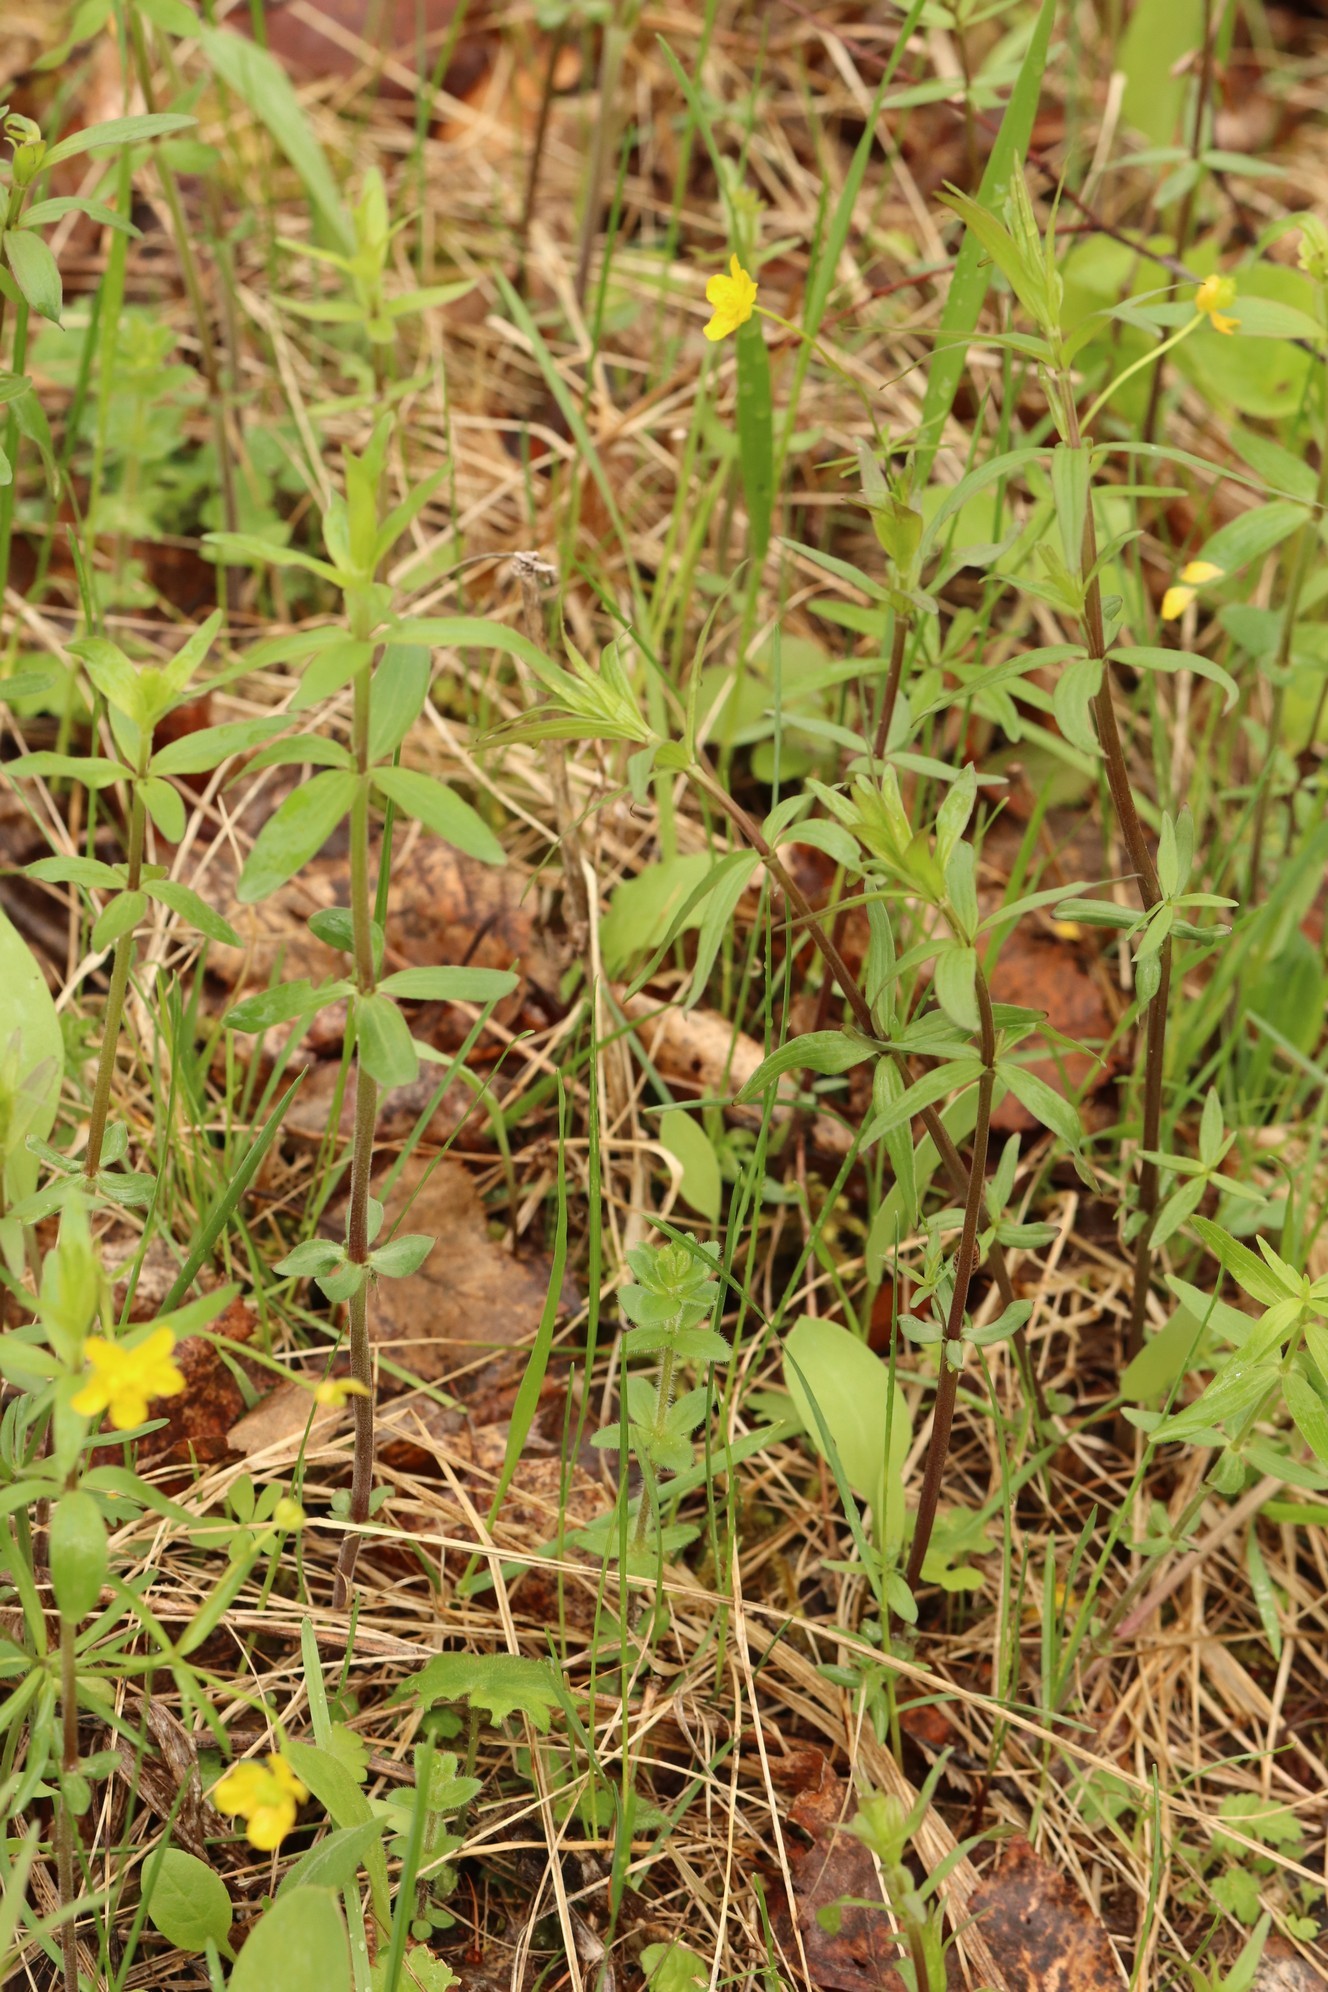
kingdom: Plantae
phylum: Tracheophyta
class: Magnoliopsida
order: Gentianales
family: Rubiaceae
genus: Galium
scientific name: Galium boreale
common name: Northern bedstraw
